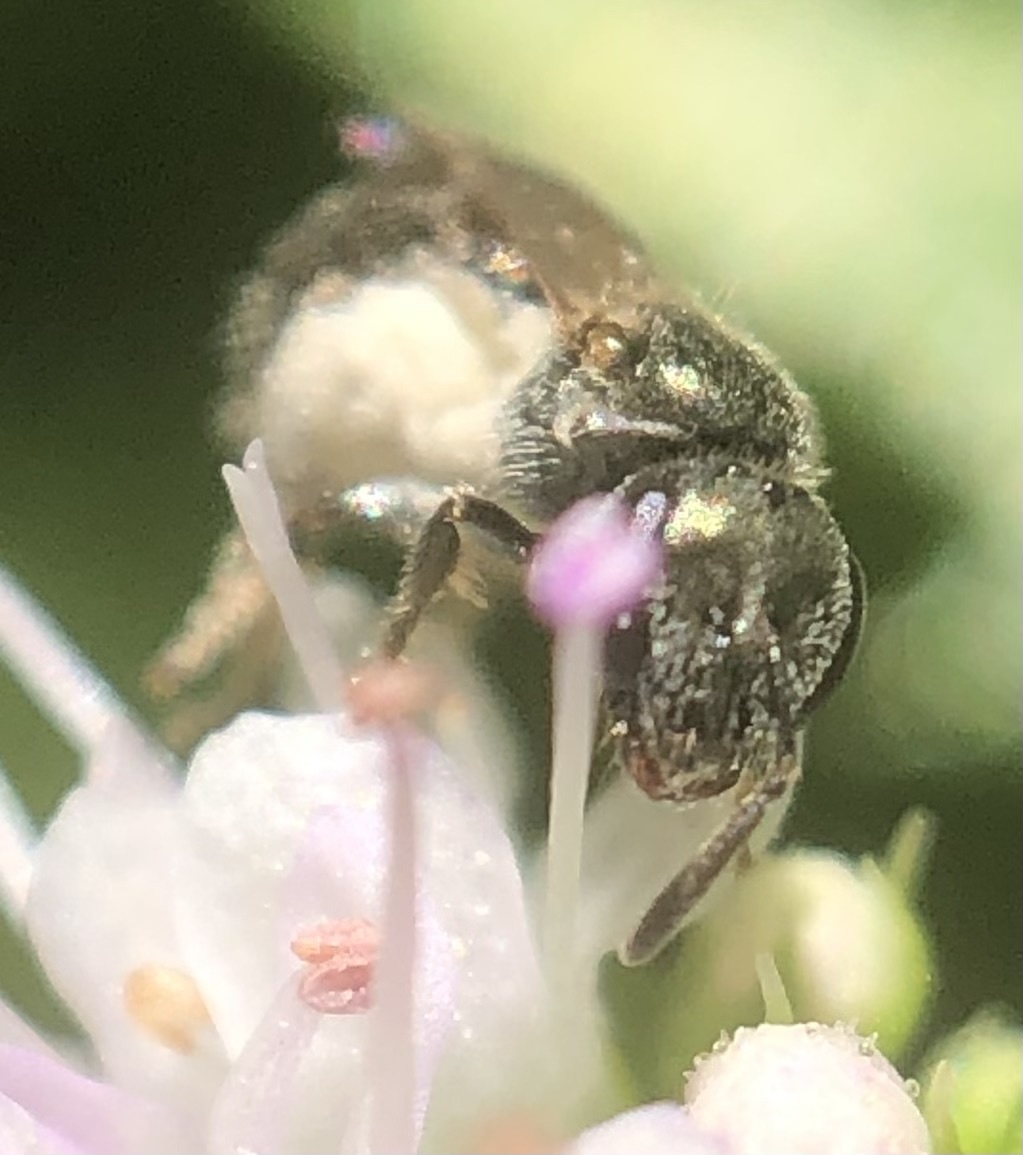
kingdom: Animalia
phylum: Arthropoda
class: Insecta
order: Hymenoptera
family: Halictidae
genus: Lasioglossum
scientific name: Lasioglossum imitatum
